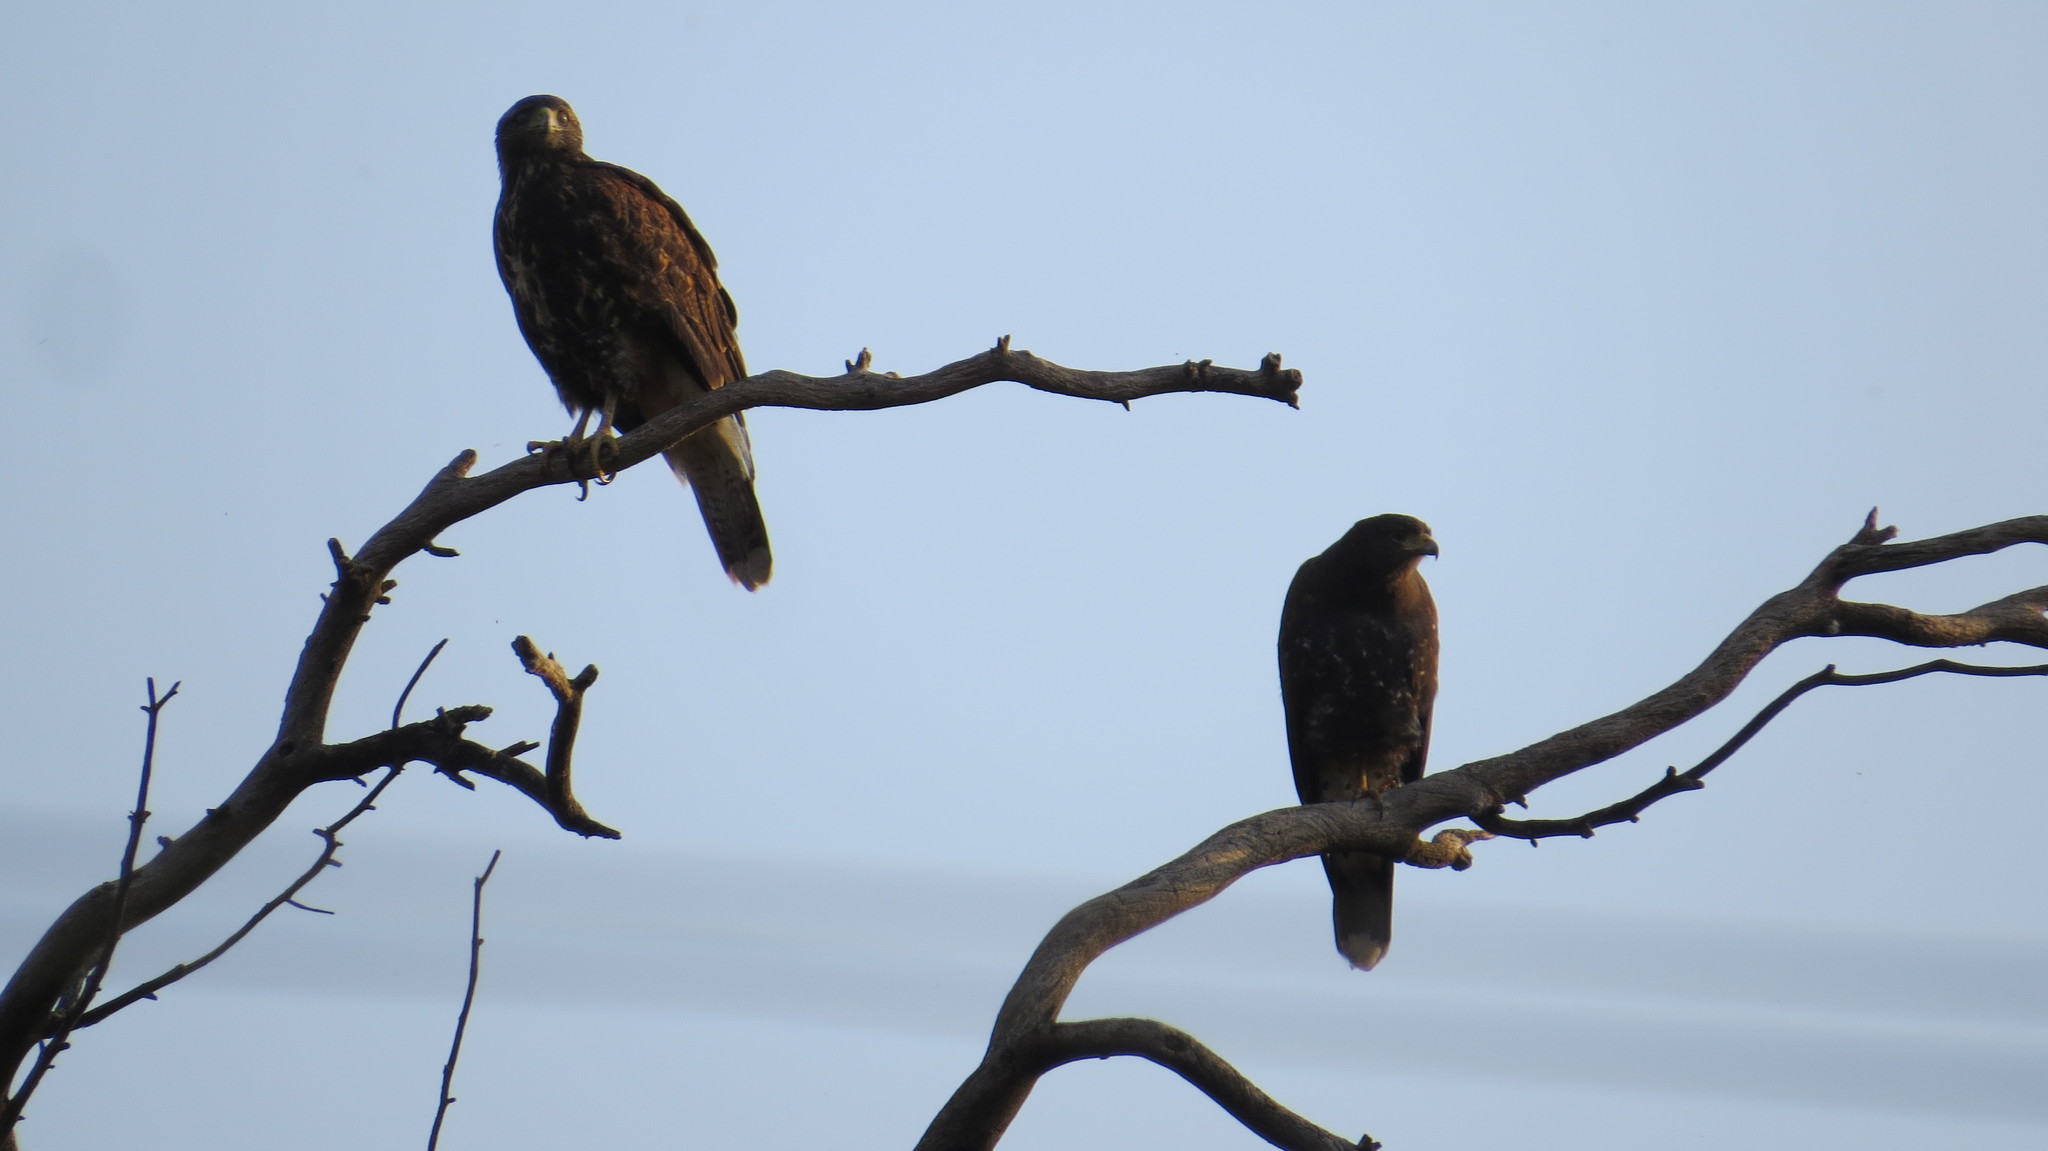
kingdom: Animalia
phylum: Chordata
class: Aves
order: Accipitriformes
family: Accipitridae
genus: Parabuteo
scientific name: Parabuteo unicinctus
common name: Harris's hawk
